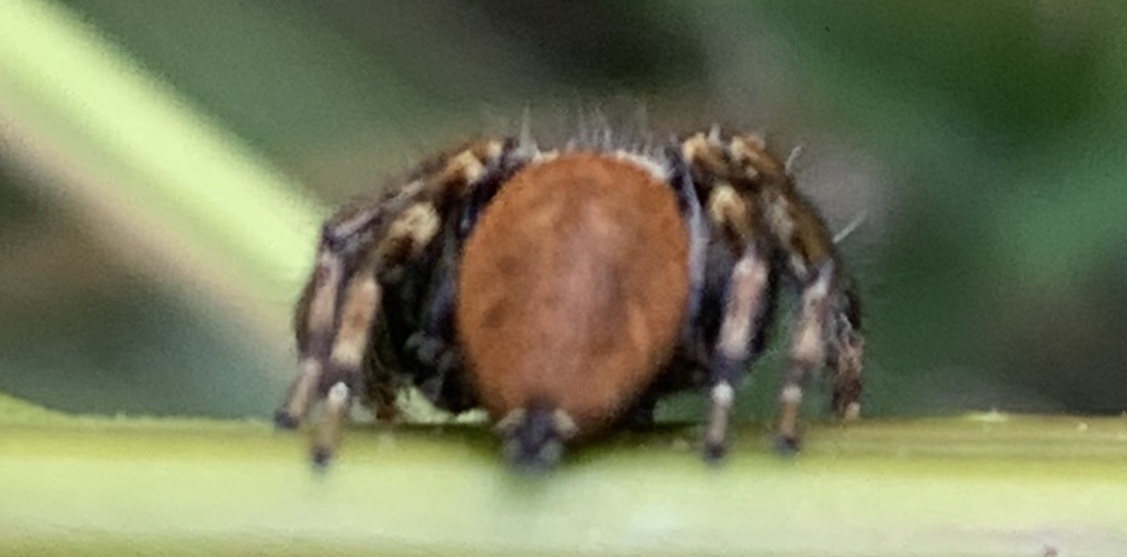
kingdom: Animalia
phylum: Arthropoda
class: Arachnida
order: Araneae
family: Salticidae
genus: Evarcha
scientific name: Evarcha jucunda
